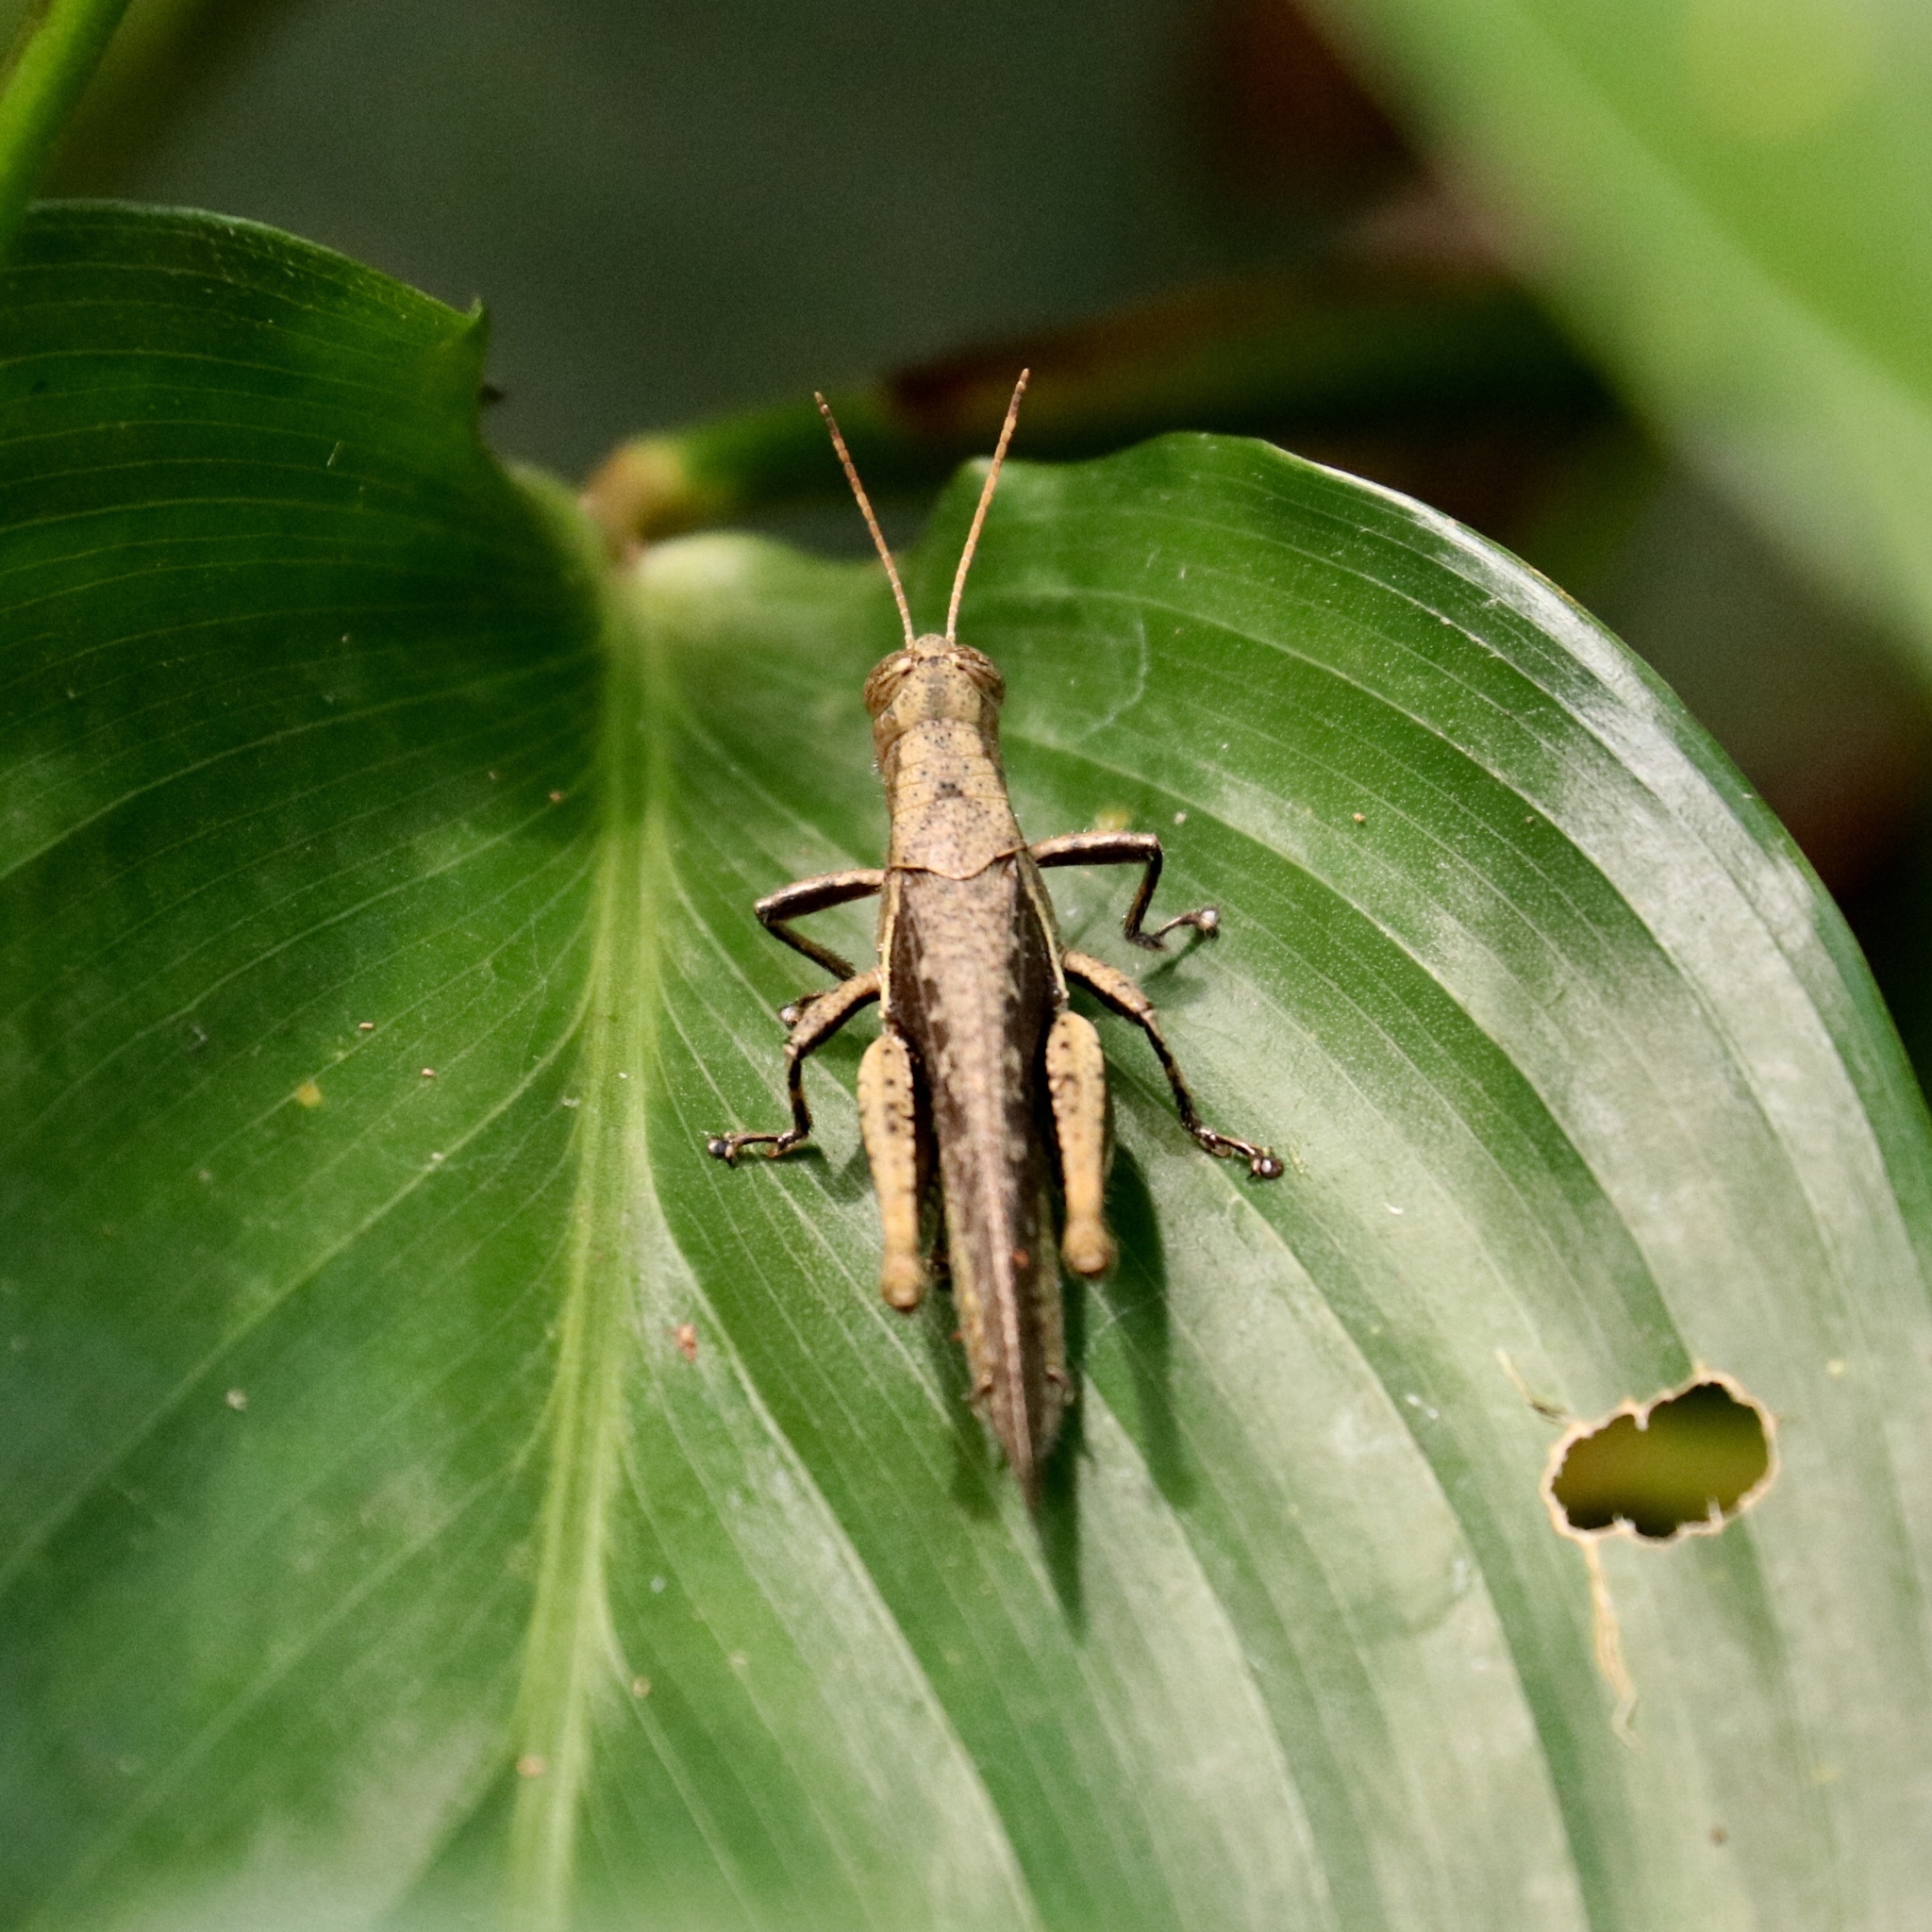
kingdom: Animalia
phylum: Arthropoda
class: Insecta
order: Orthoptera
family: Acrididae
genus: Abracris
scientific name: Abracris flavolineata
